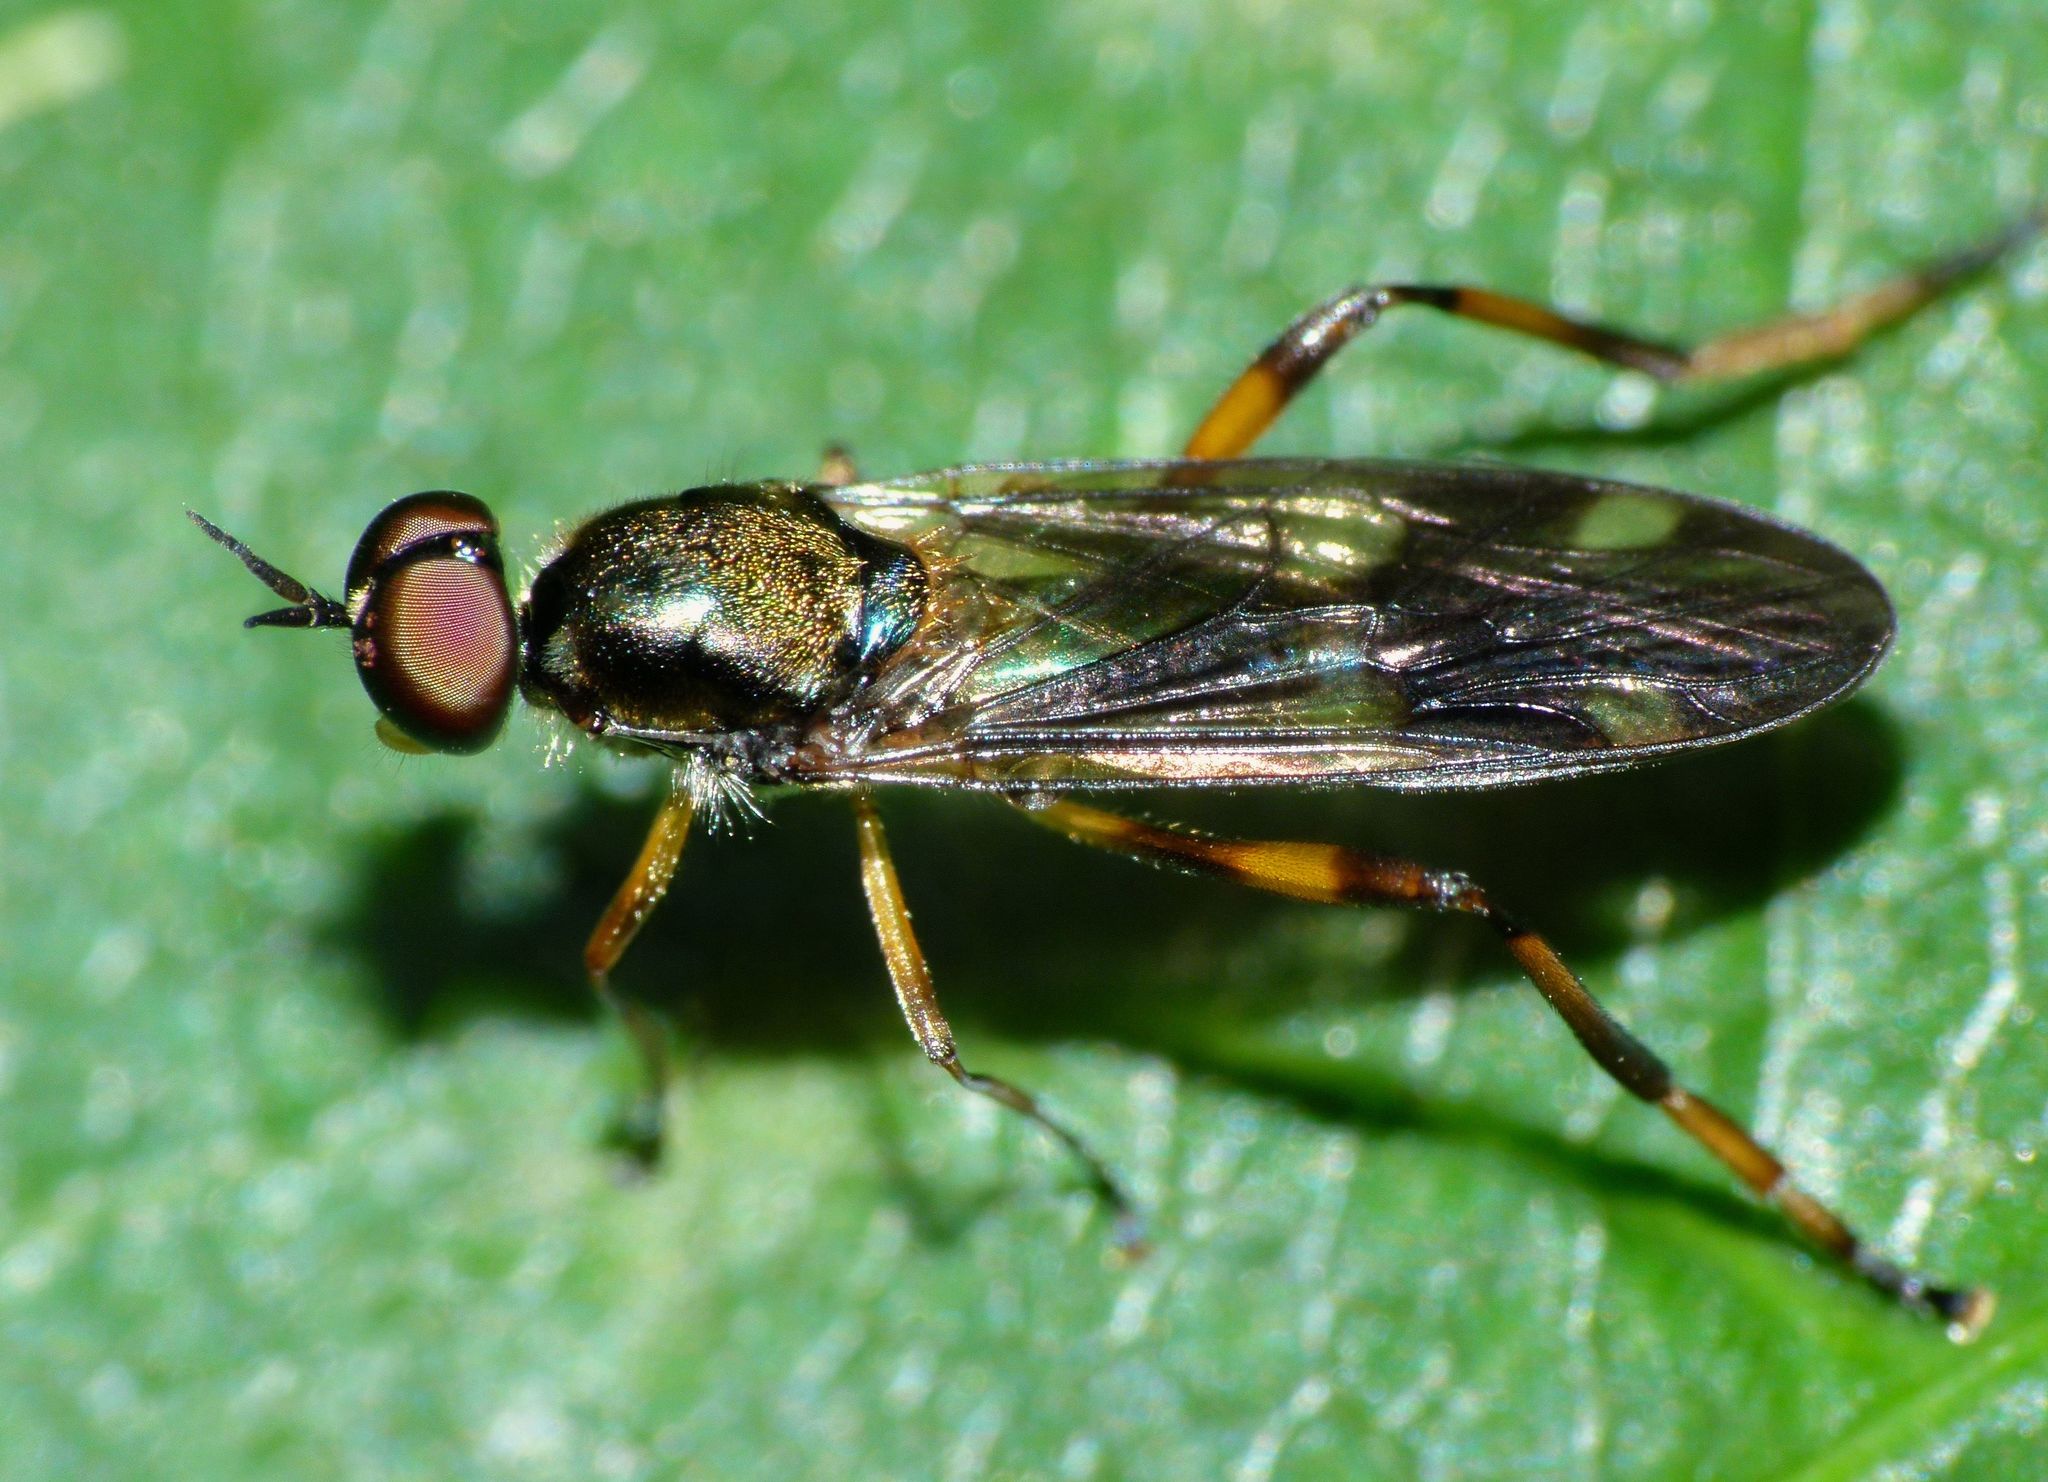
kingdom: Animalia
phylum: Arthropoda
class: Insecta
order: Diptera
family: Stratiomyidae
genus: Benhamyia
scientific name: Benhamyia hoheria
